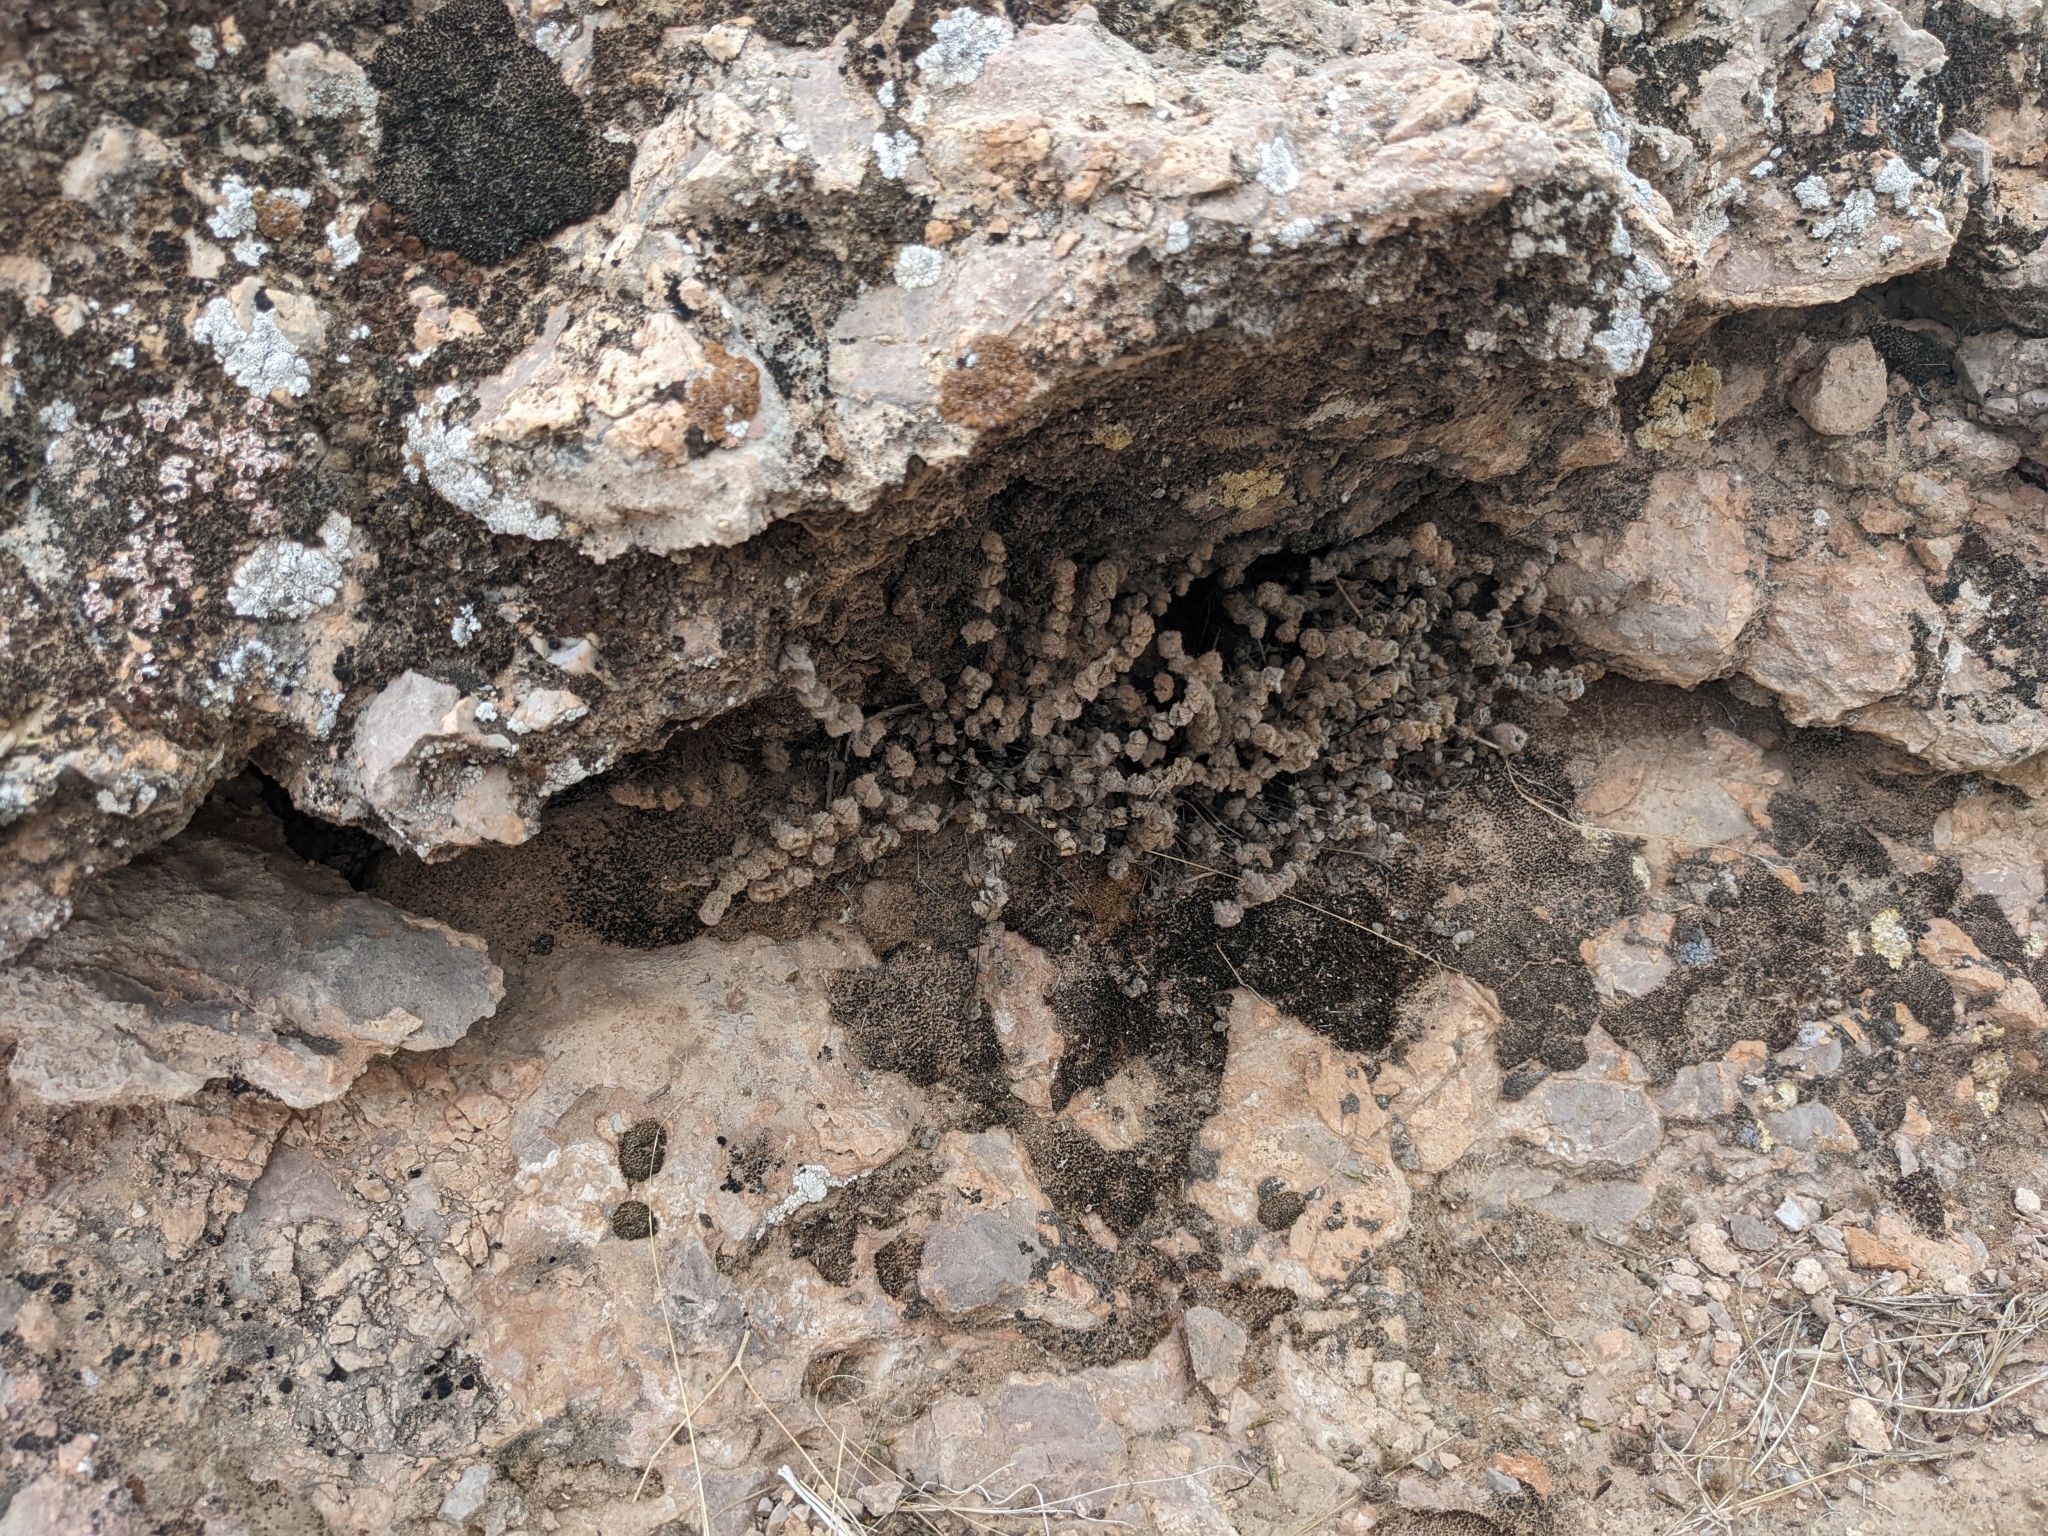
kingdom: Plantae
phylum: Tracheophyta
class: Polypodiopsida
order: Polypodiales
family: Pteridaceae
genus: Myriopteris
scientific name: Myriopteris parryi
